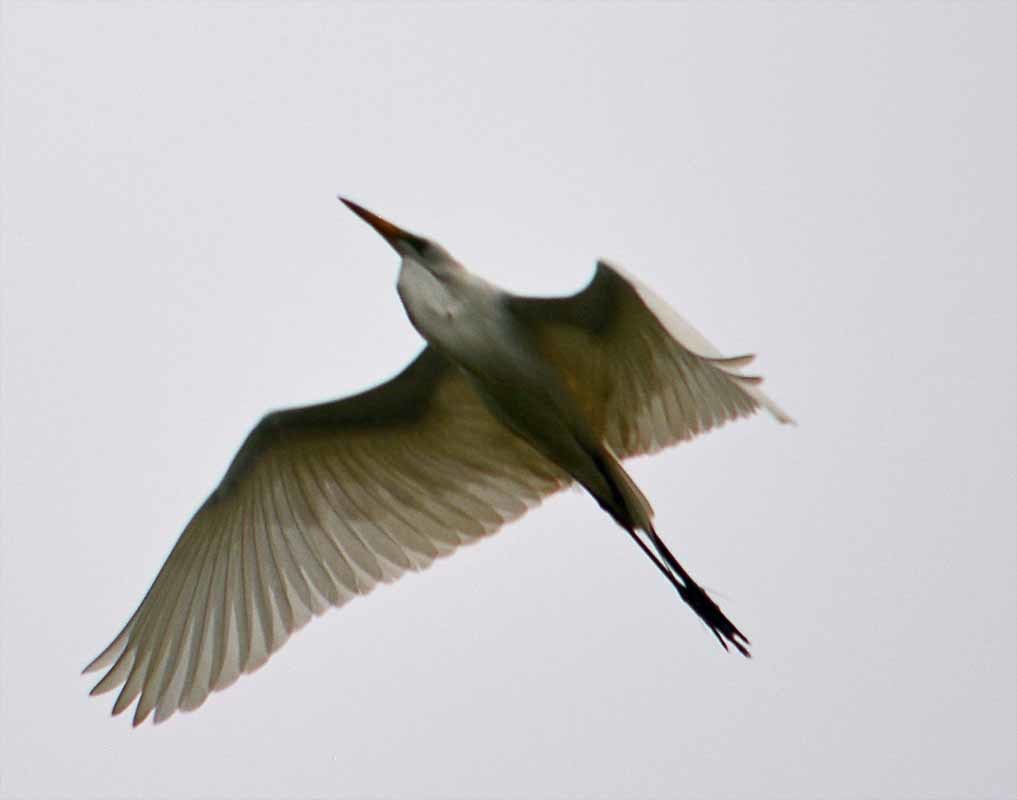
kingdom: Animalia
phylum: Chordata
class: Aves
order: Pelecaniformes
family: Ardeidae
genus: Ardea
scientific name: Ardea alba
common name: Great egret
